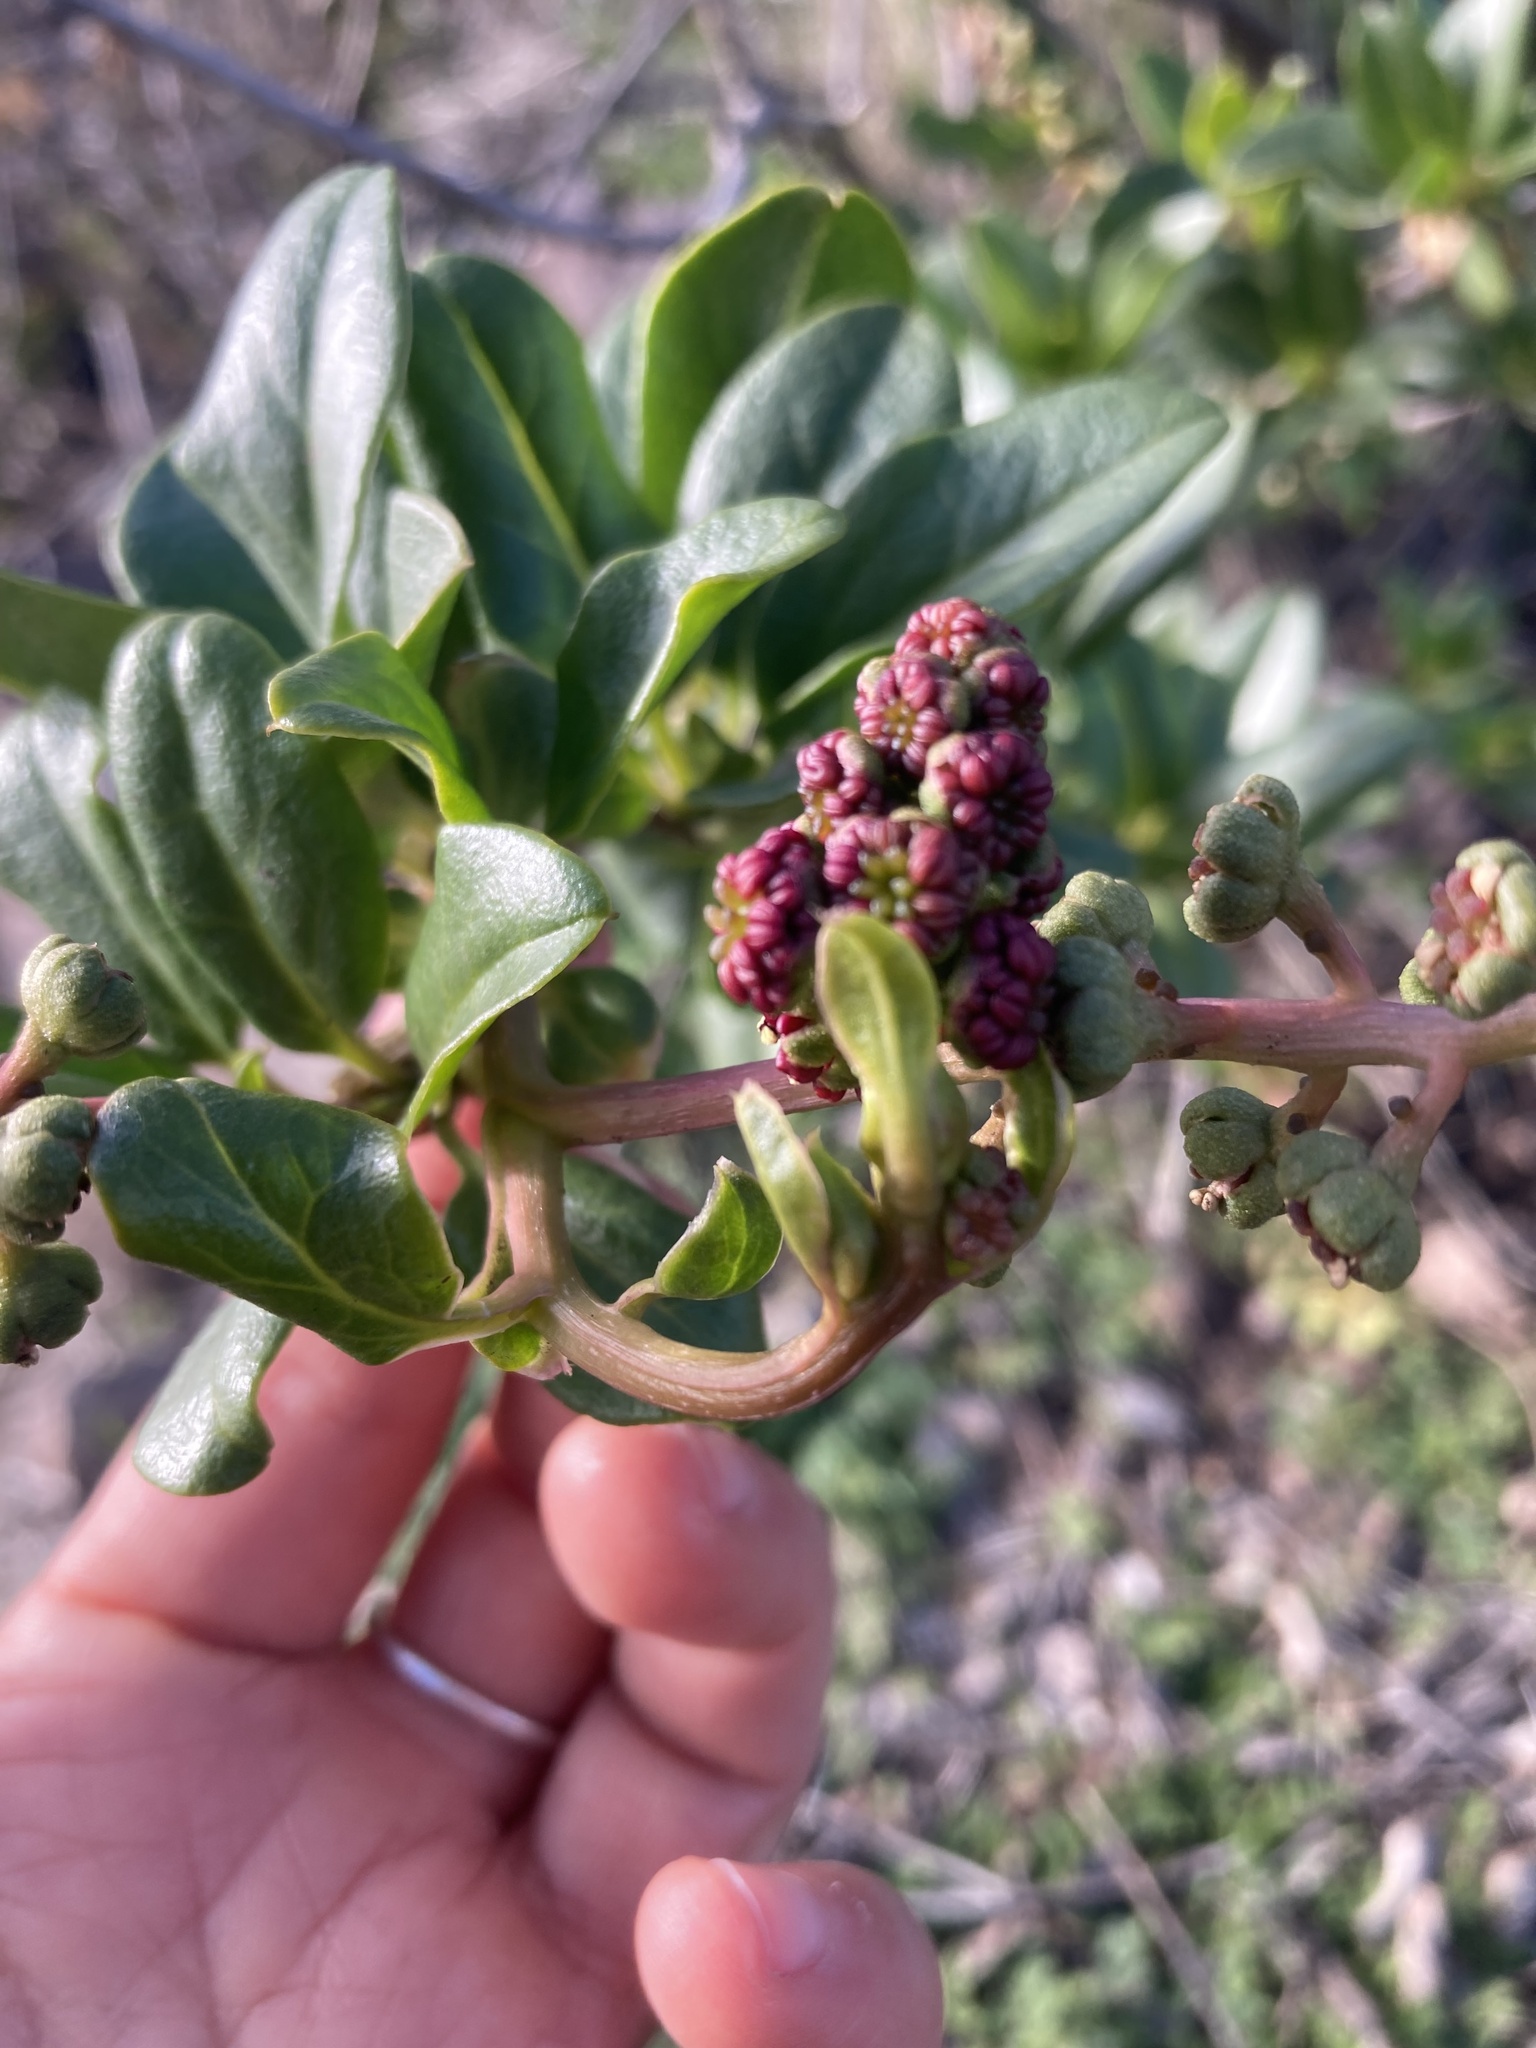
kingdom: Plantae
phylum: Tracheophyta
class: Magnoliopsida
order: Caryophyllales
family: Phytolaccaceae
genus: Anisomeria
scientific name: Anisomeria littoralis
